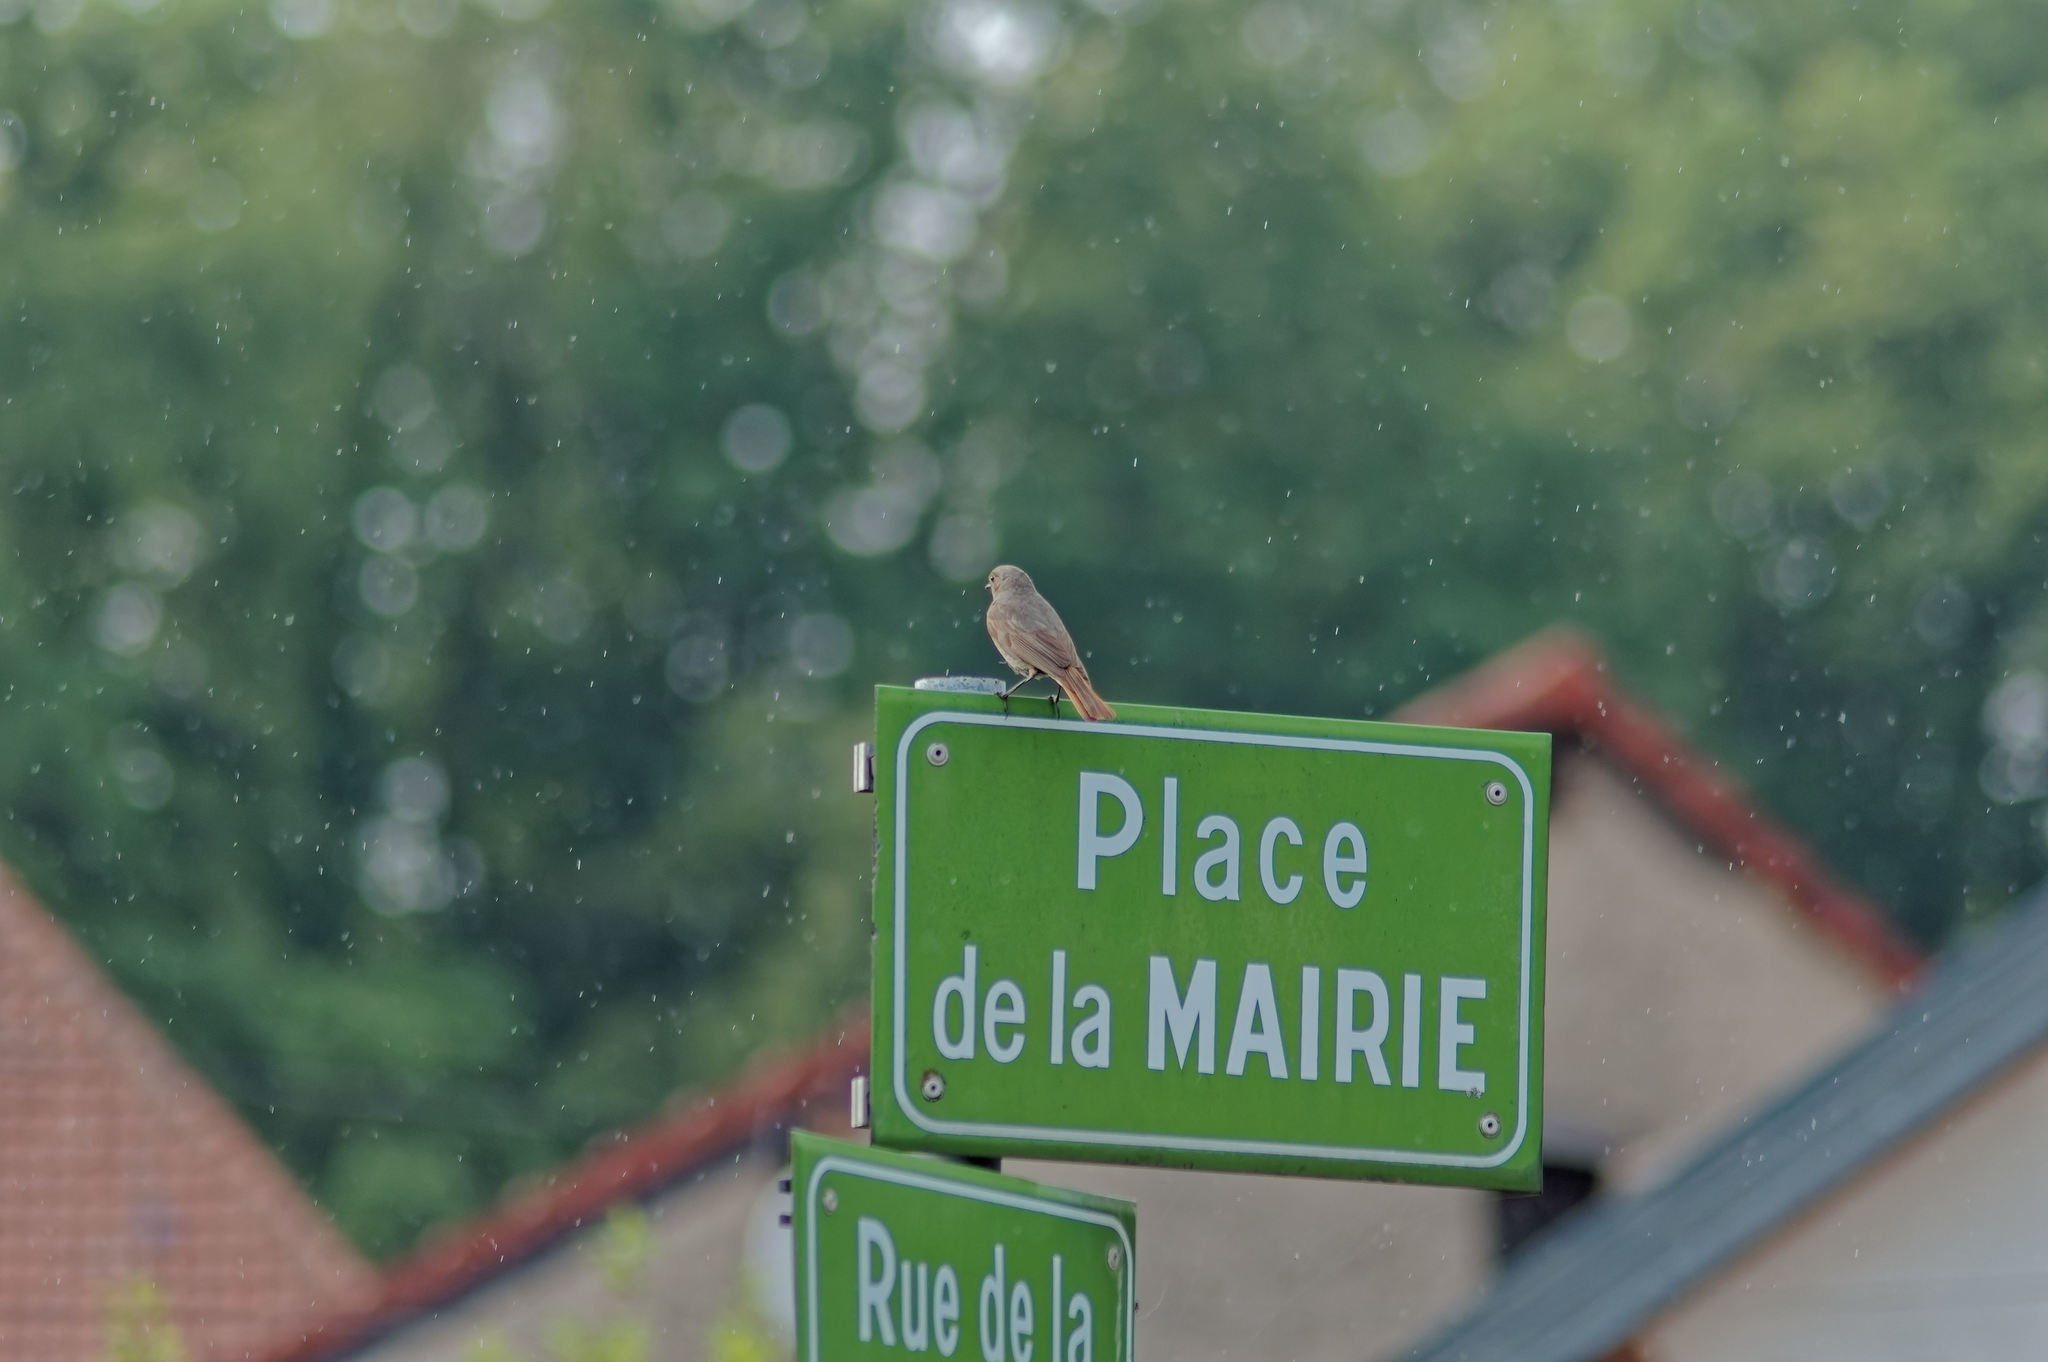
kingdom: Animalia
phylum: Chordata
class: Aves
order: Passeriformes
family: Muscicapidae
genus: Phoenicurus
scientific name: Phoenicurus ochruros
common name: Black redstart
